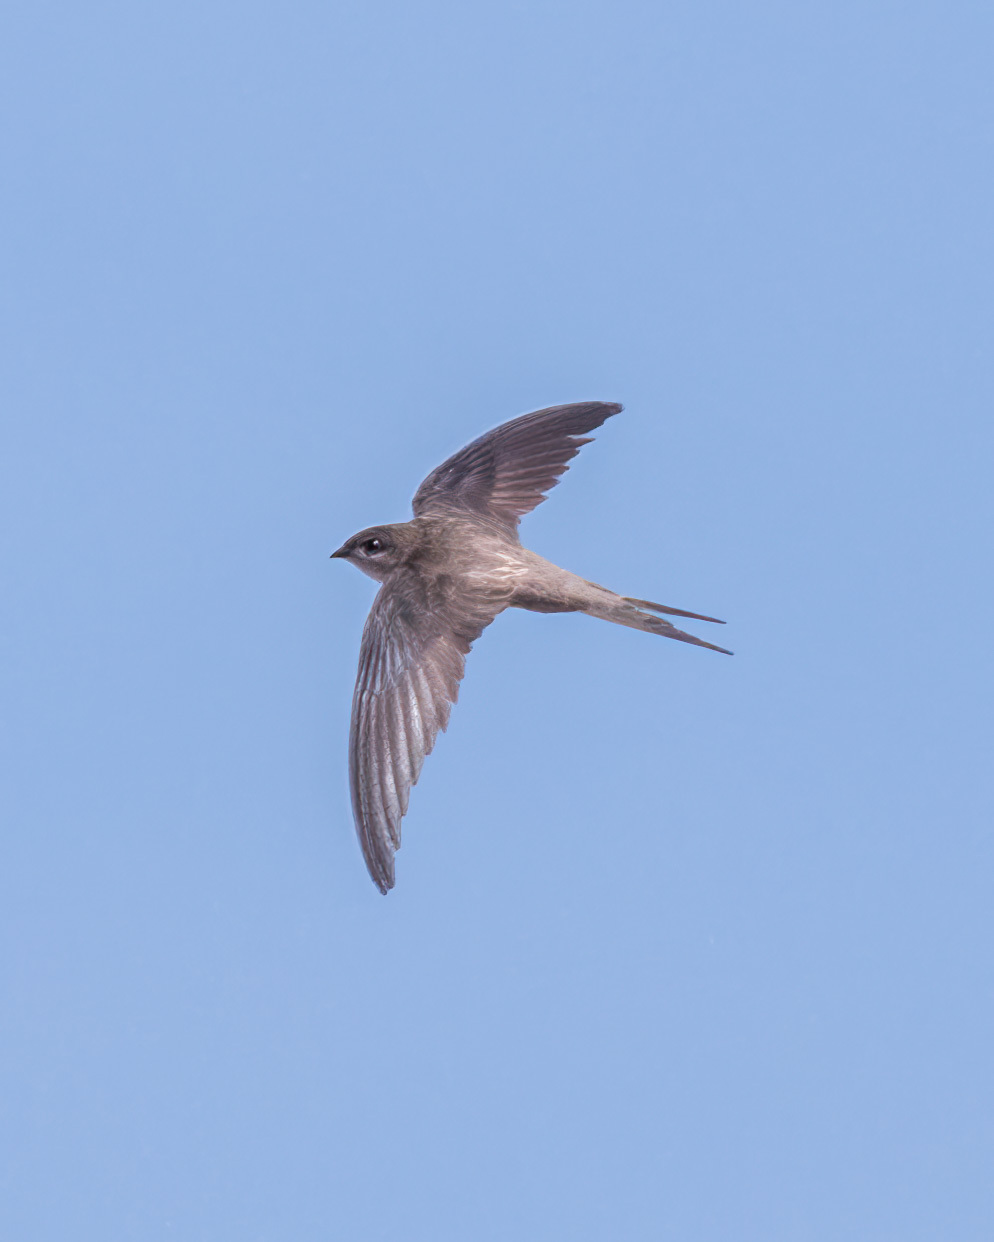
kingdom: Animalia
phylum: Chordata
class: Aves
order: Apodiformes
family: Apodidae
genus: Cypsiurus
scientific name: Cypsiurus balasiensis
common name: Asian palm swift
